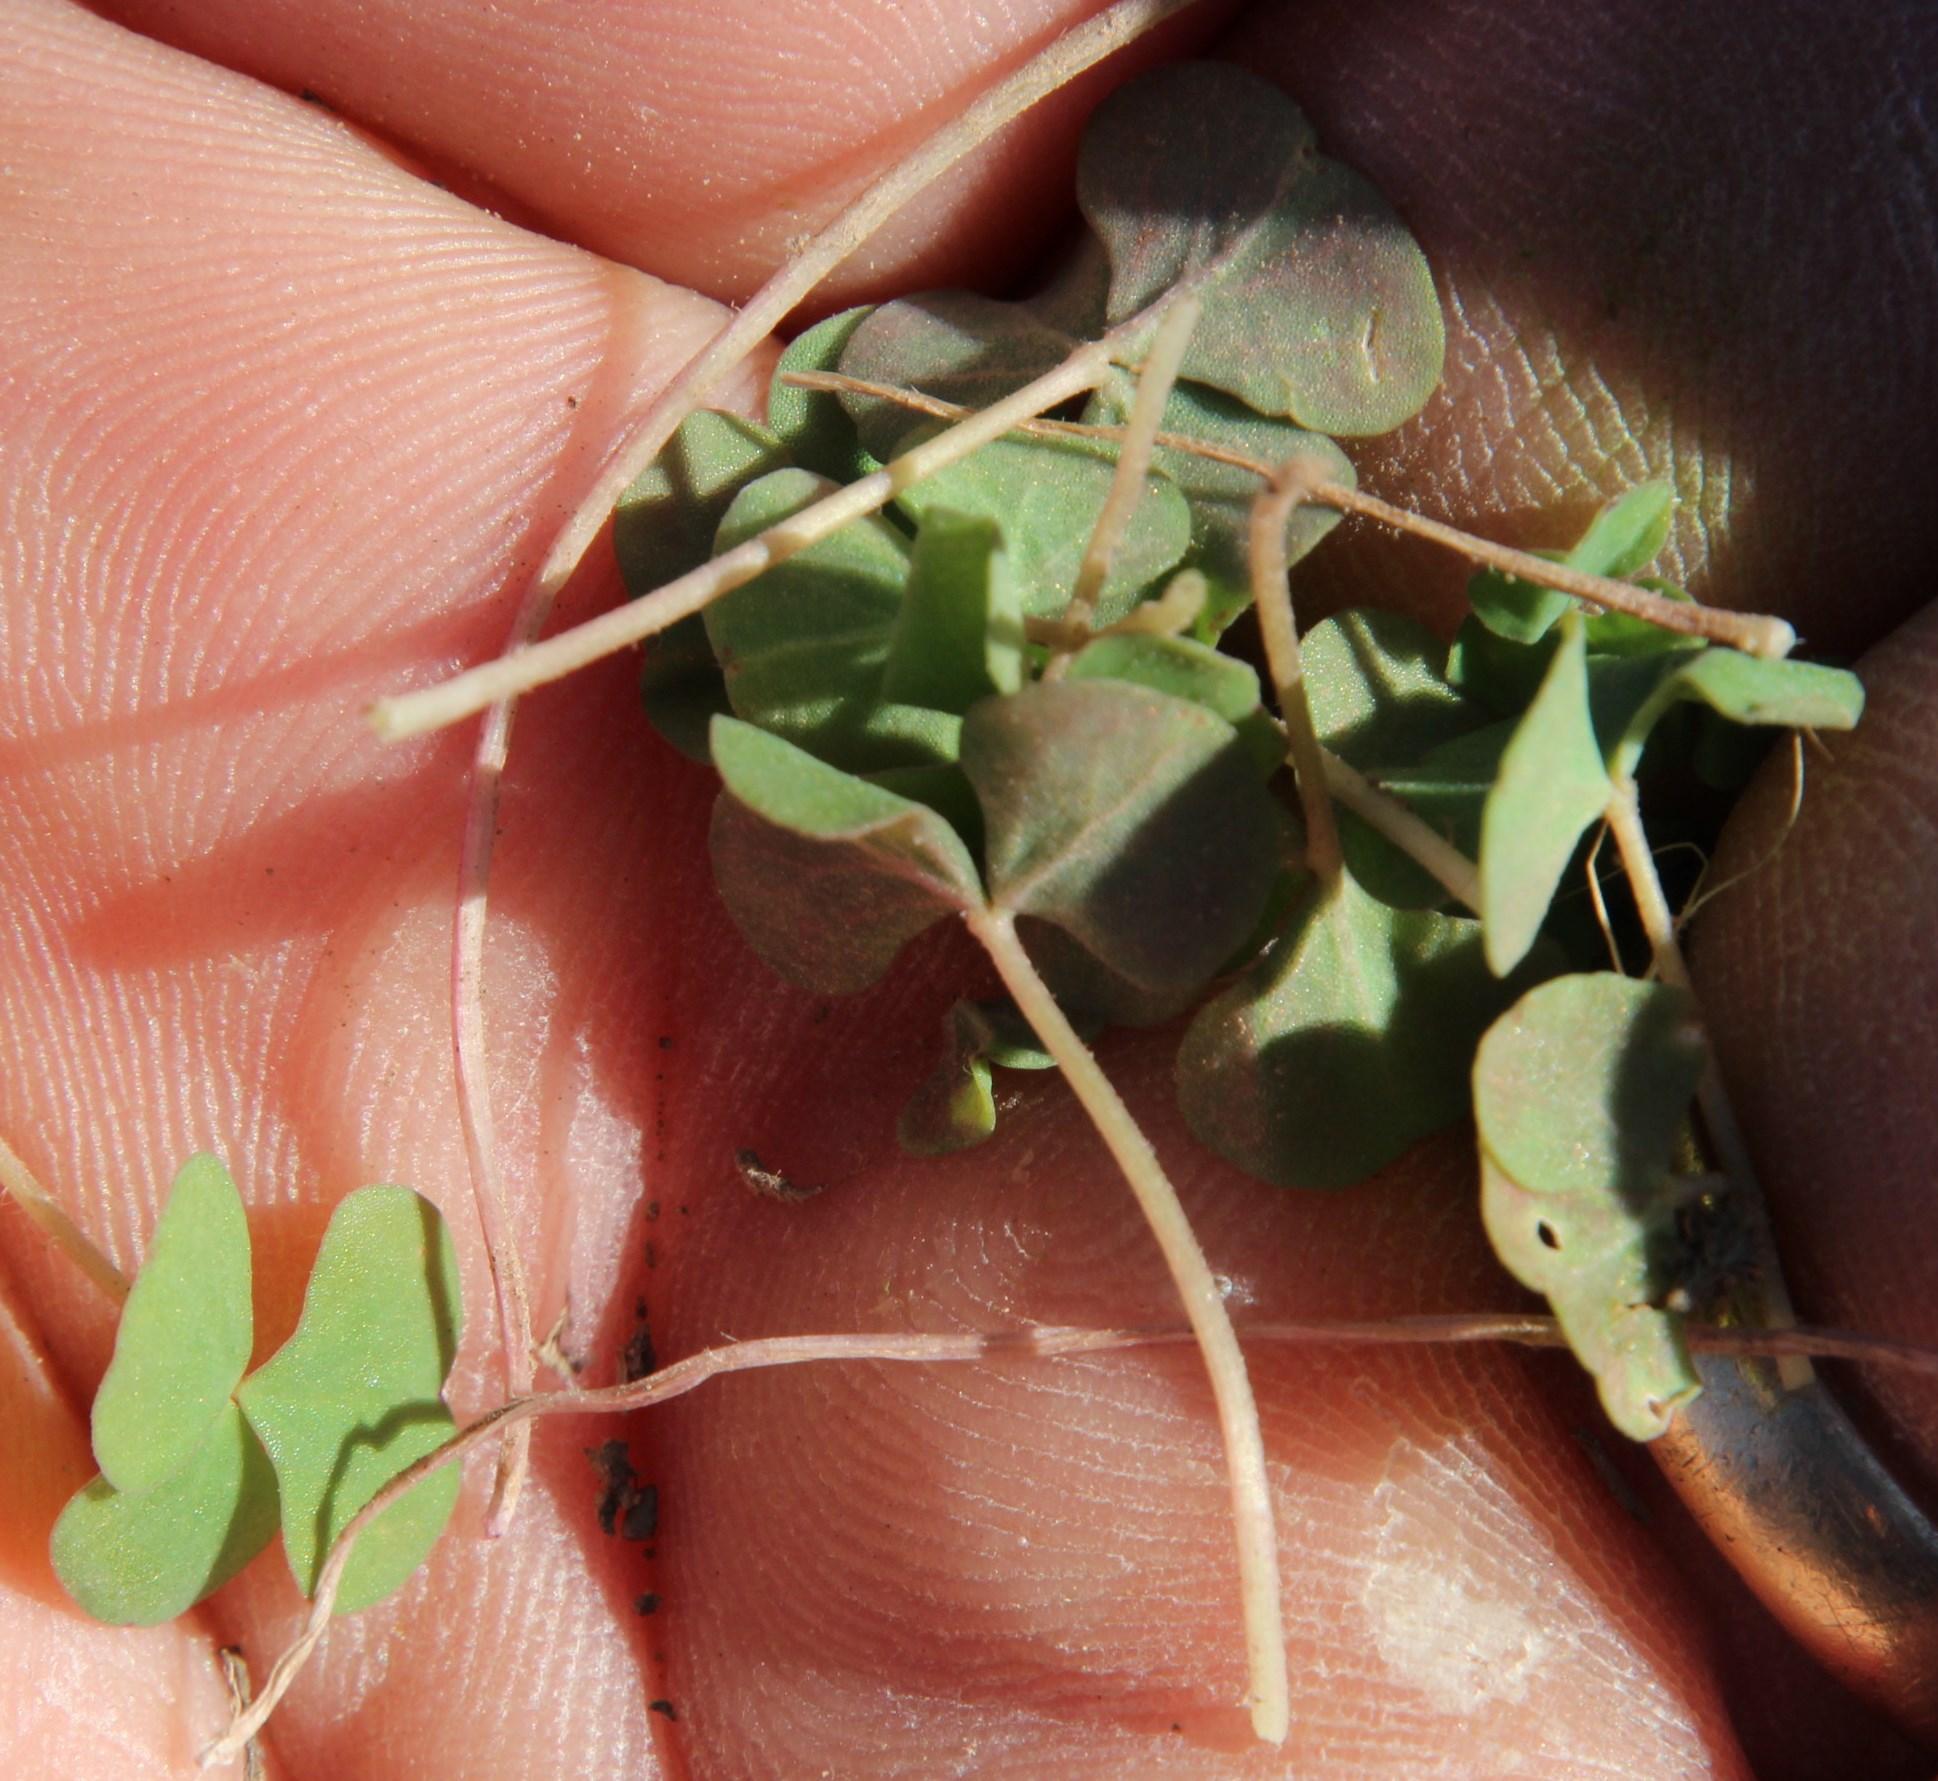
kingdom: Plantae
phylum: Tracheophyta
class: Magnoliopsida
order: Oxalidales
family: Oxalidaceae
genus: Oxalis
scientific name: Oxalis depressa
